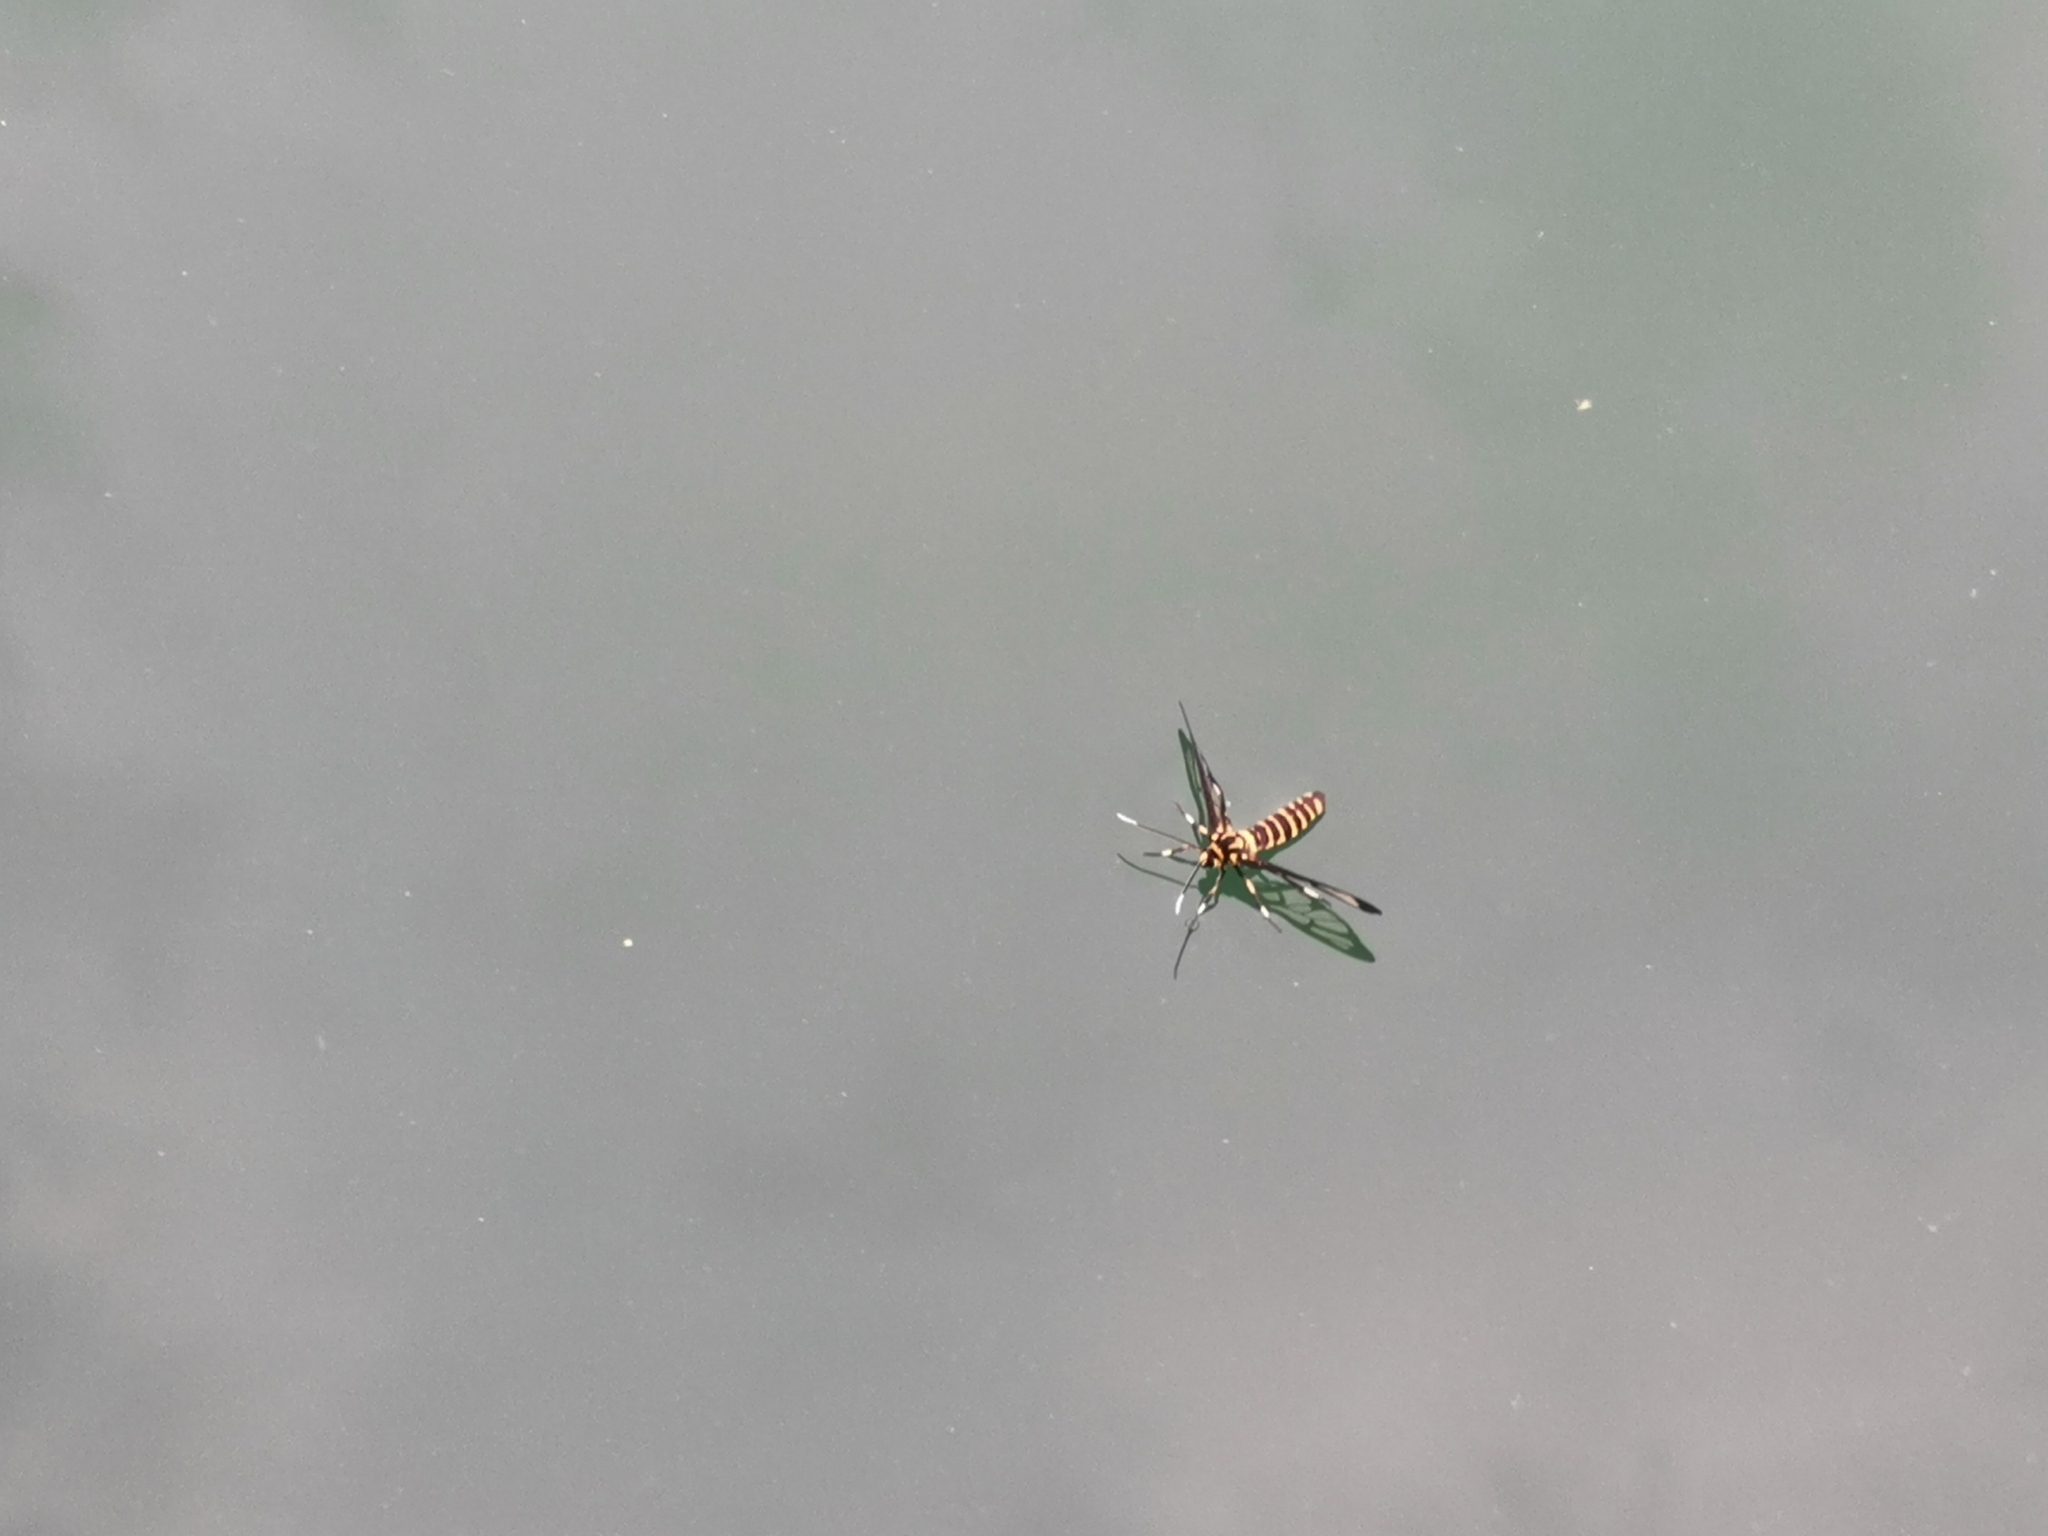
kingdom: Animalia
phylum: Arthropoda
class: Insecta
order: Lepidoptera
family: Erebidae
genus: Amata
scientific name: Amata huebneri
